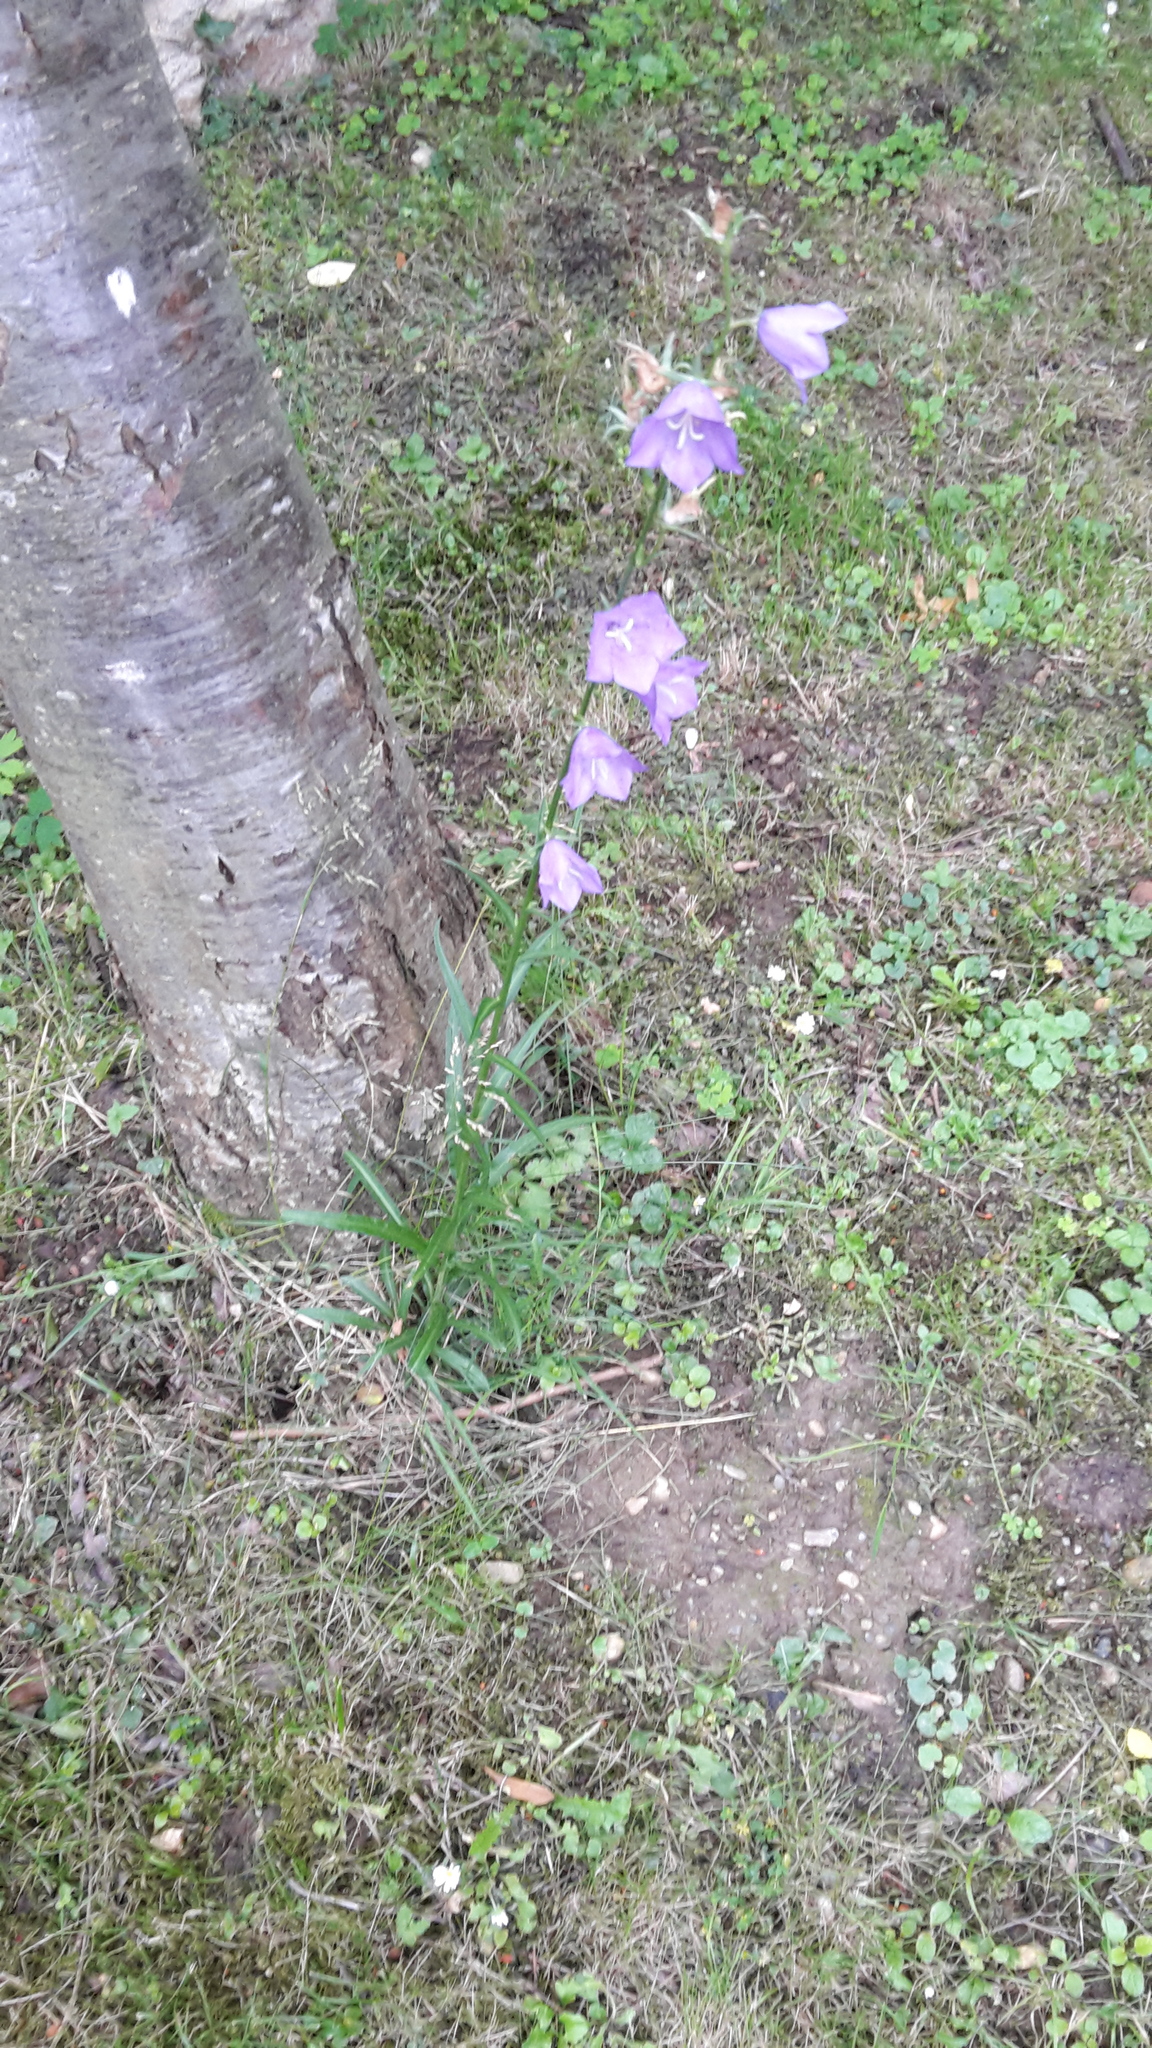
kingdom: Plantae
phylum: Tracheophyta
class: Magnoliopsida
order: Asterales
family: Campanulaceae
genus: Campanula
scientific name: Campanula persicifolia
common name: Peach-leaved bellflower
